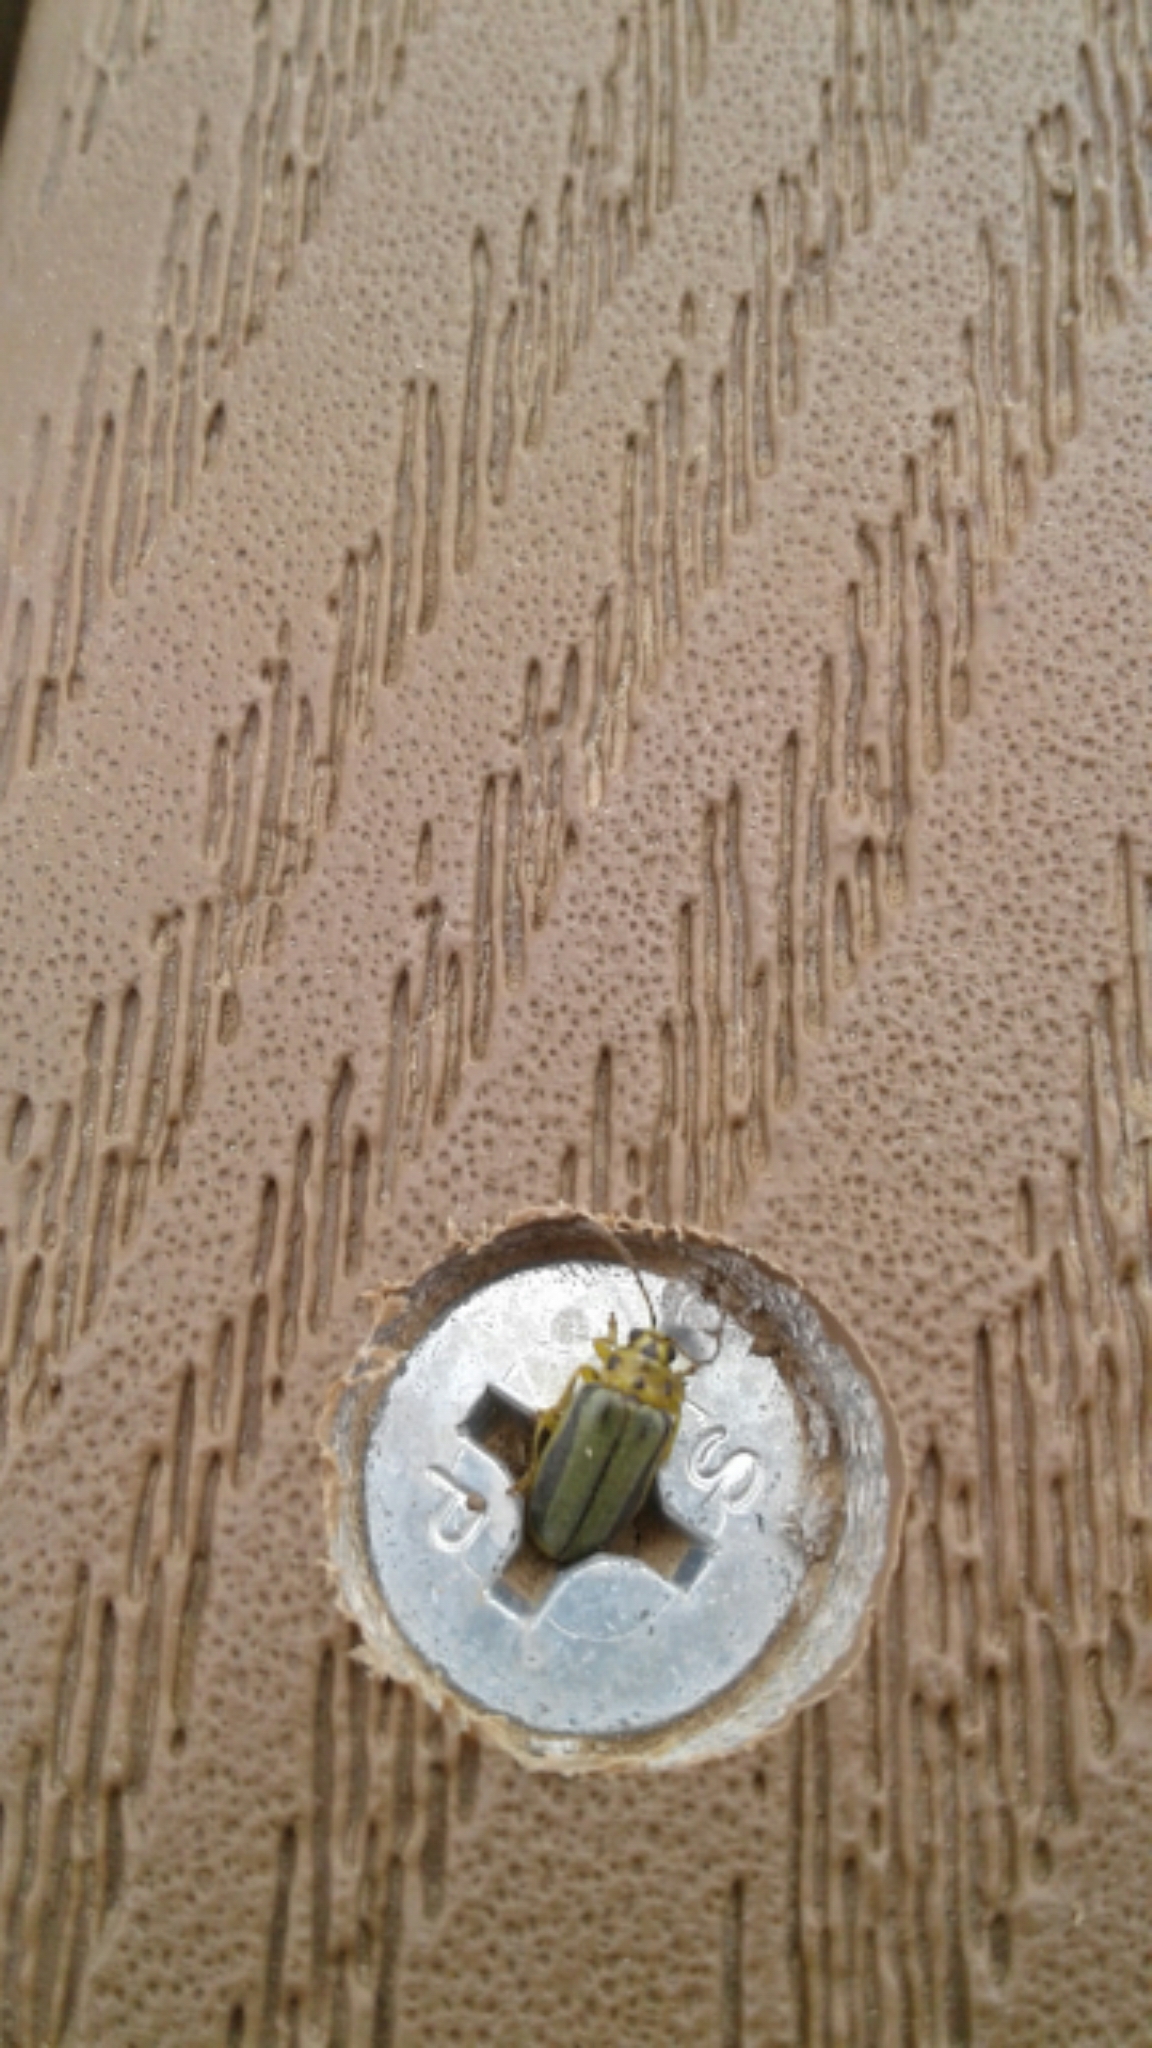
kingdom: Animalia
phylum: Arthropoda
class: Insecta
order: Coleoptera
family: Chrysomelidae
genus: Xanthogaleruca
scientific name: Xanthogaleruca luteola
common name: Elm leaf beetle
